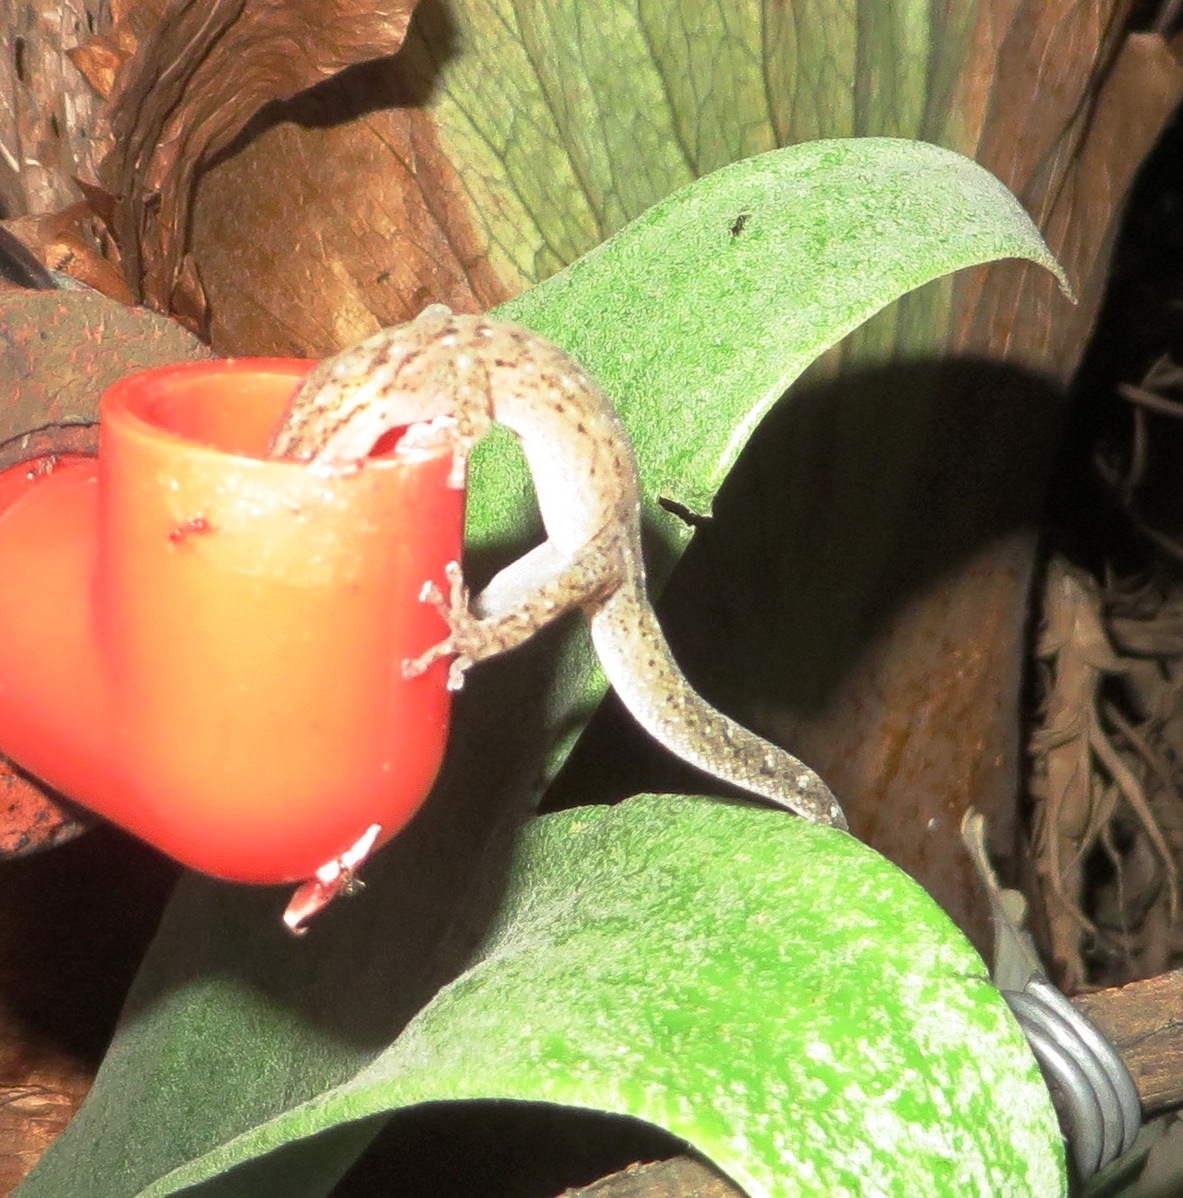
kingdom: Animalia
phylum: Chordata
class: Squamata
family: Gekkonidae
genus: Afrogecko
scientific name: Afrogecko porphyreus
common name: Marbled leaf-toed gecko
